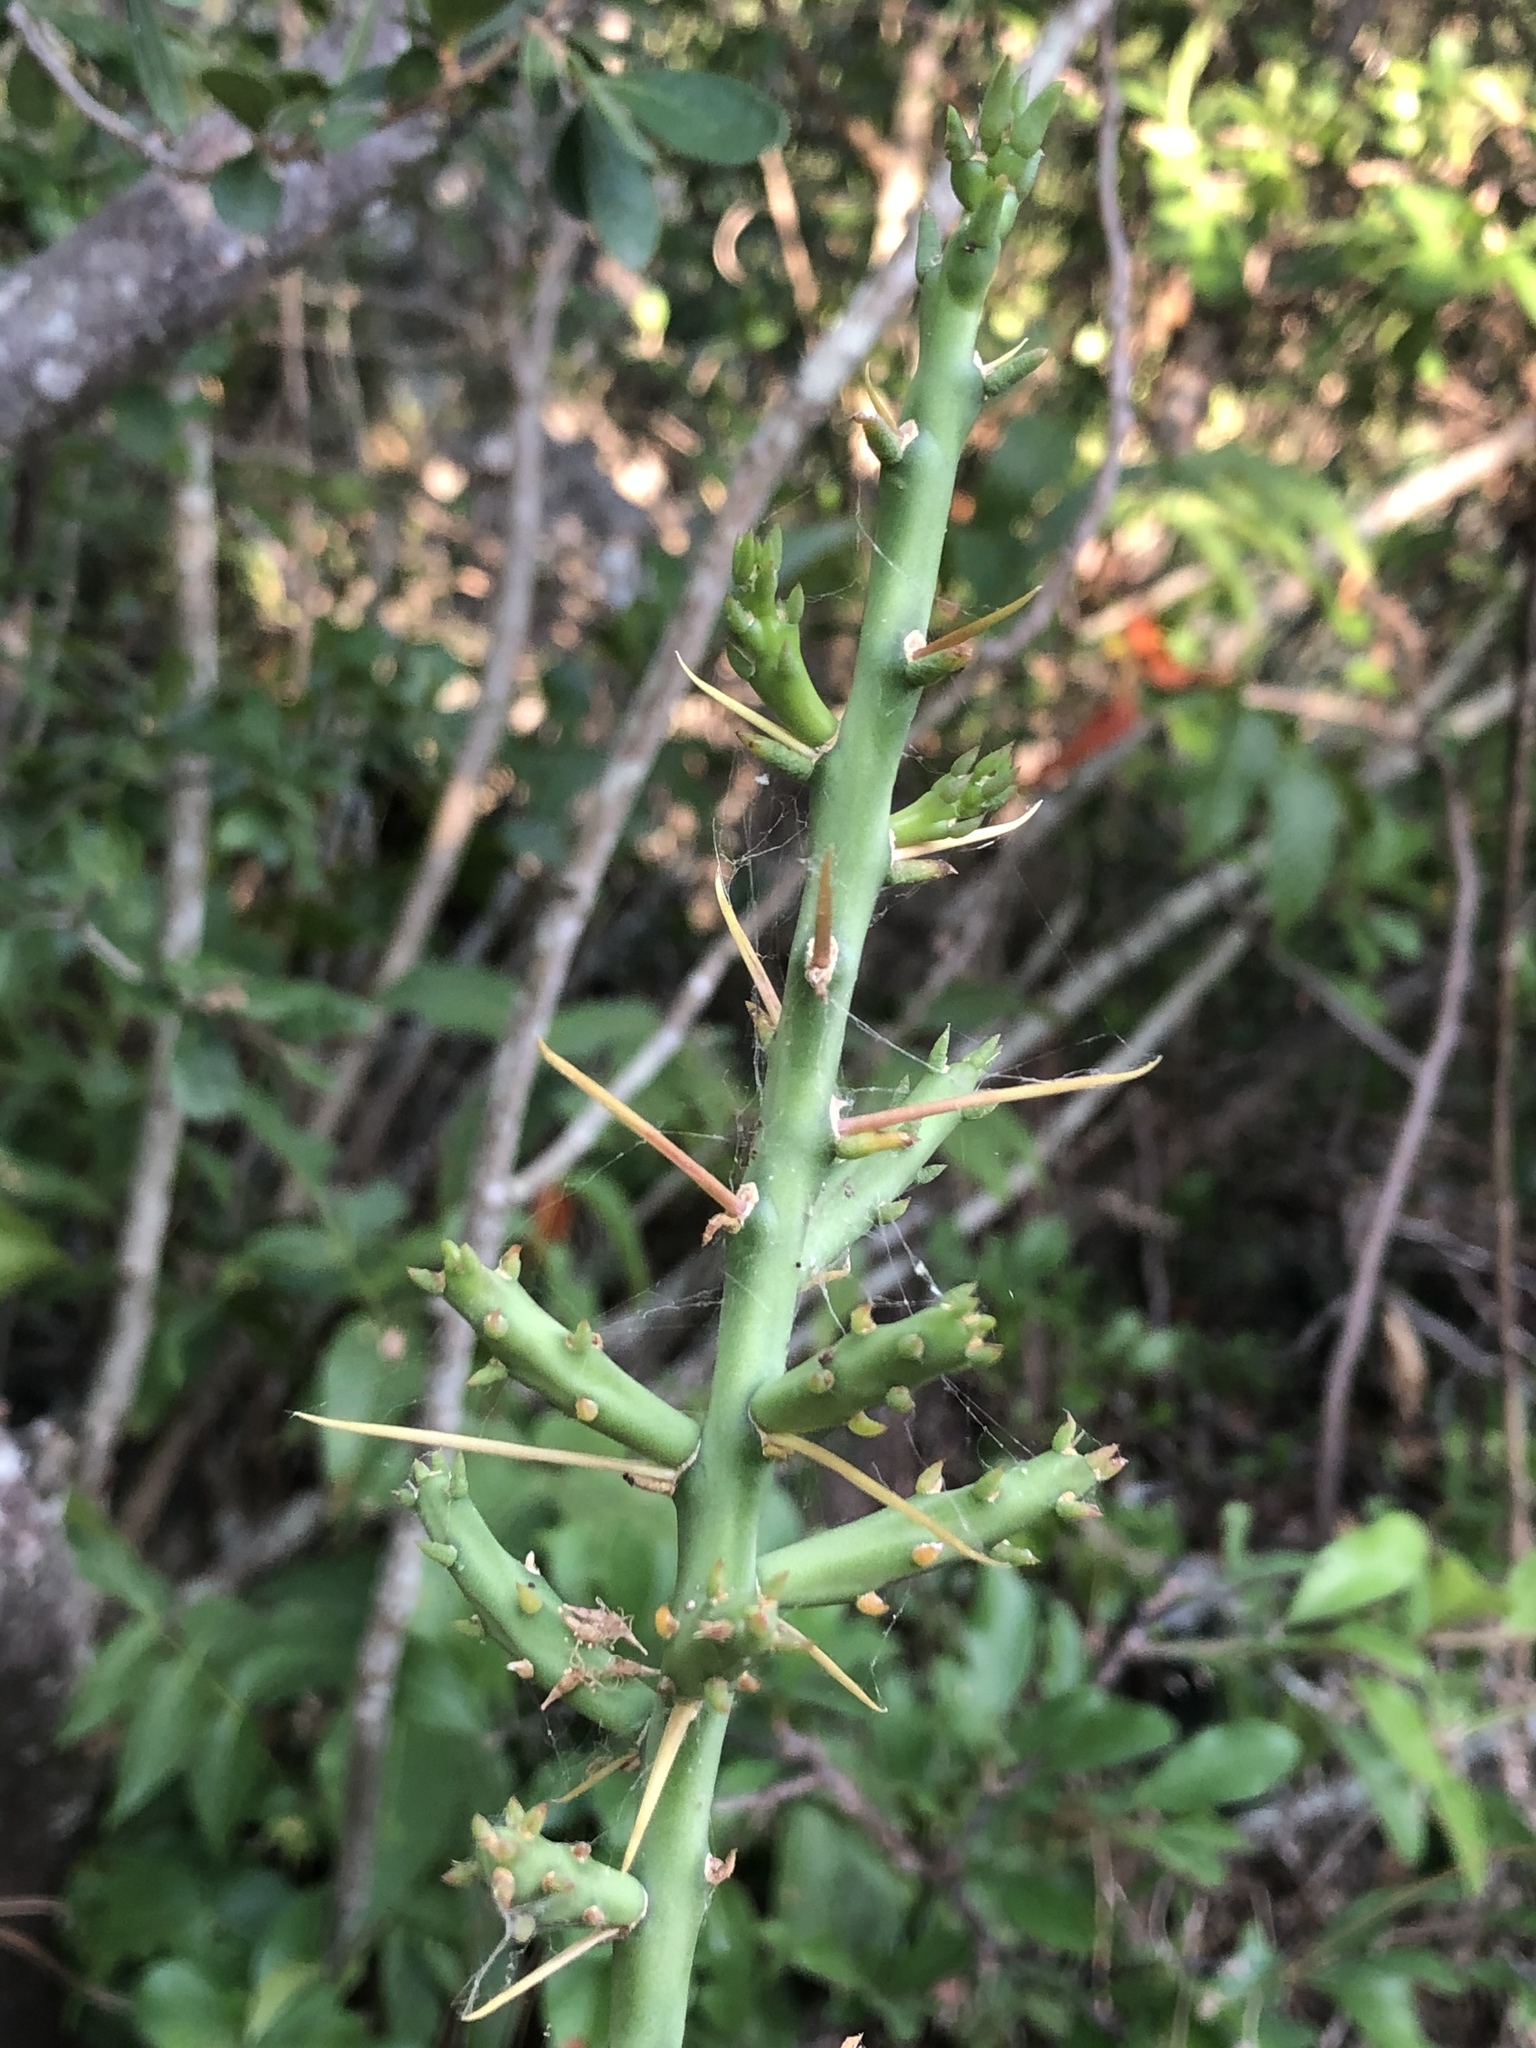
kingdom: Plantae
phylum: Tracheophyta
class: Magnoliopsida
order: Caryophyllales
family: Cactaceae
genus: Cylindropuntia
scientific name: Cylindropuntia leptocaulis
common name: Christmas cactus
